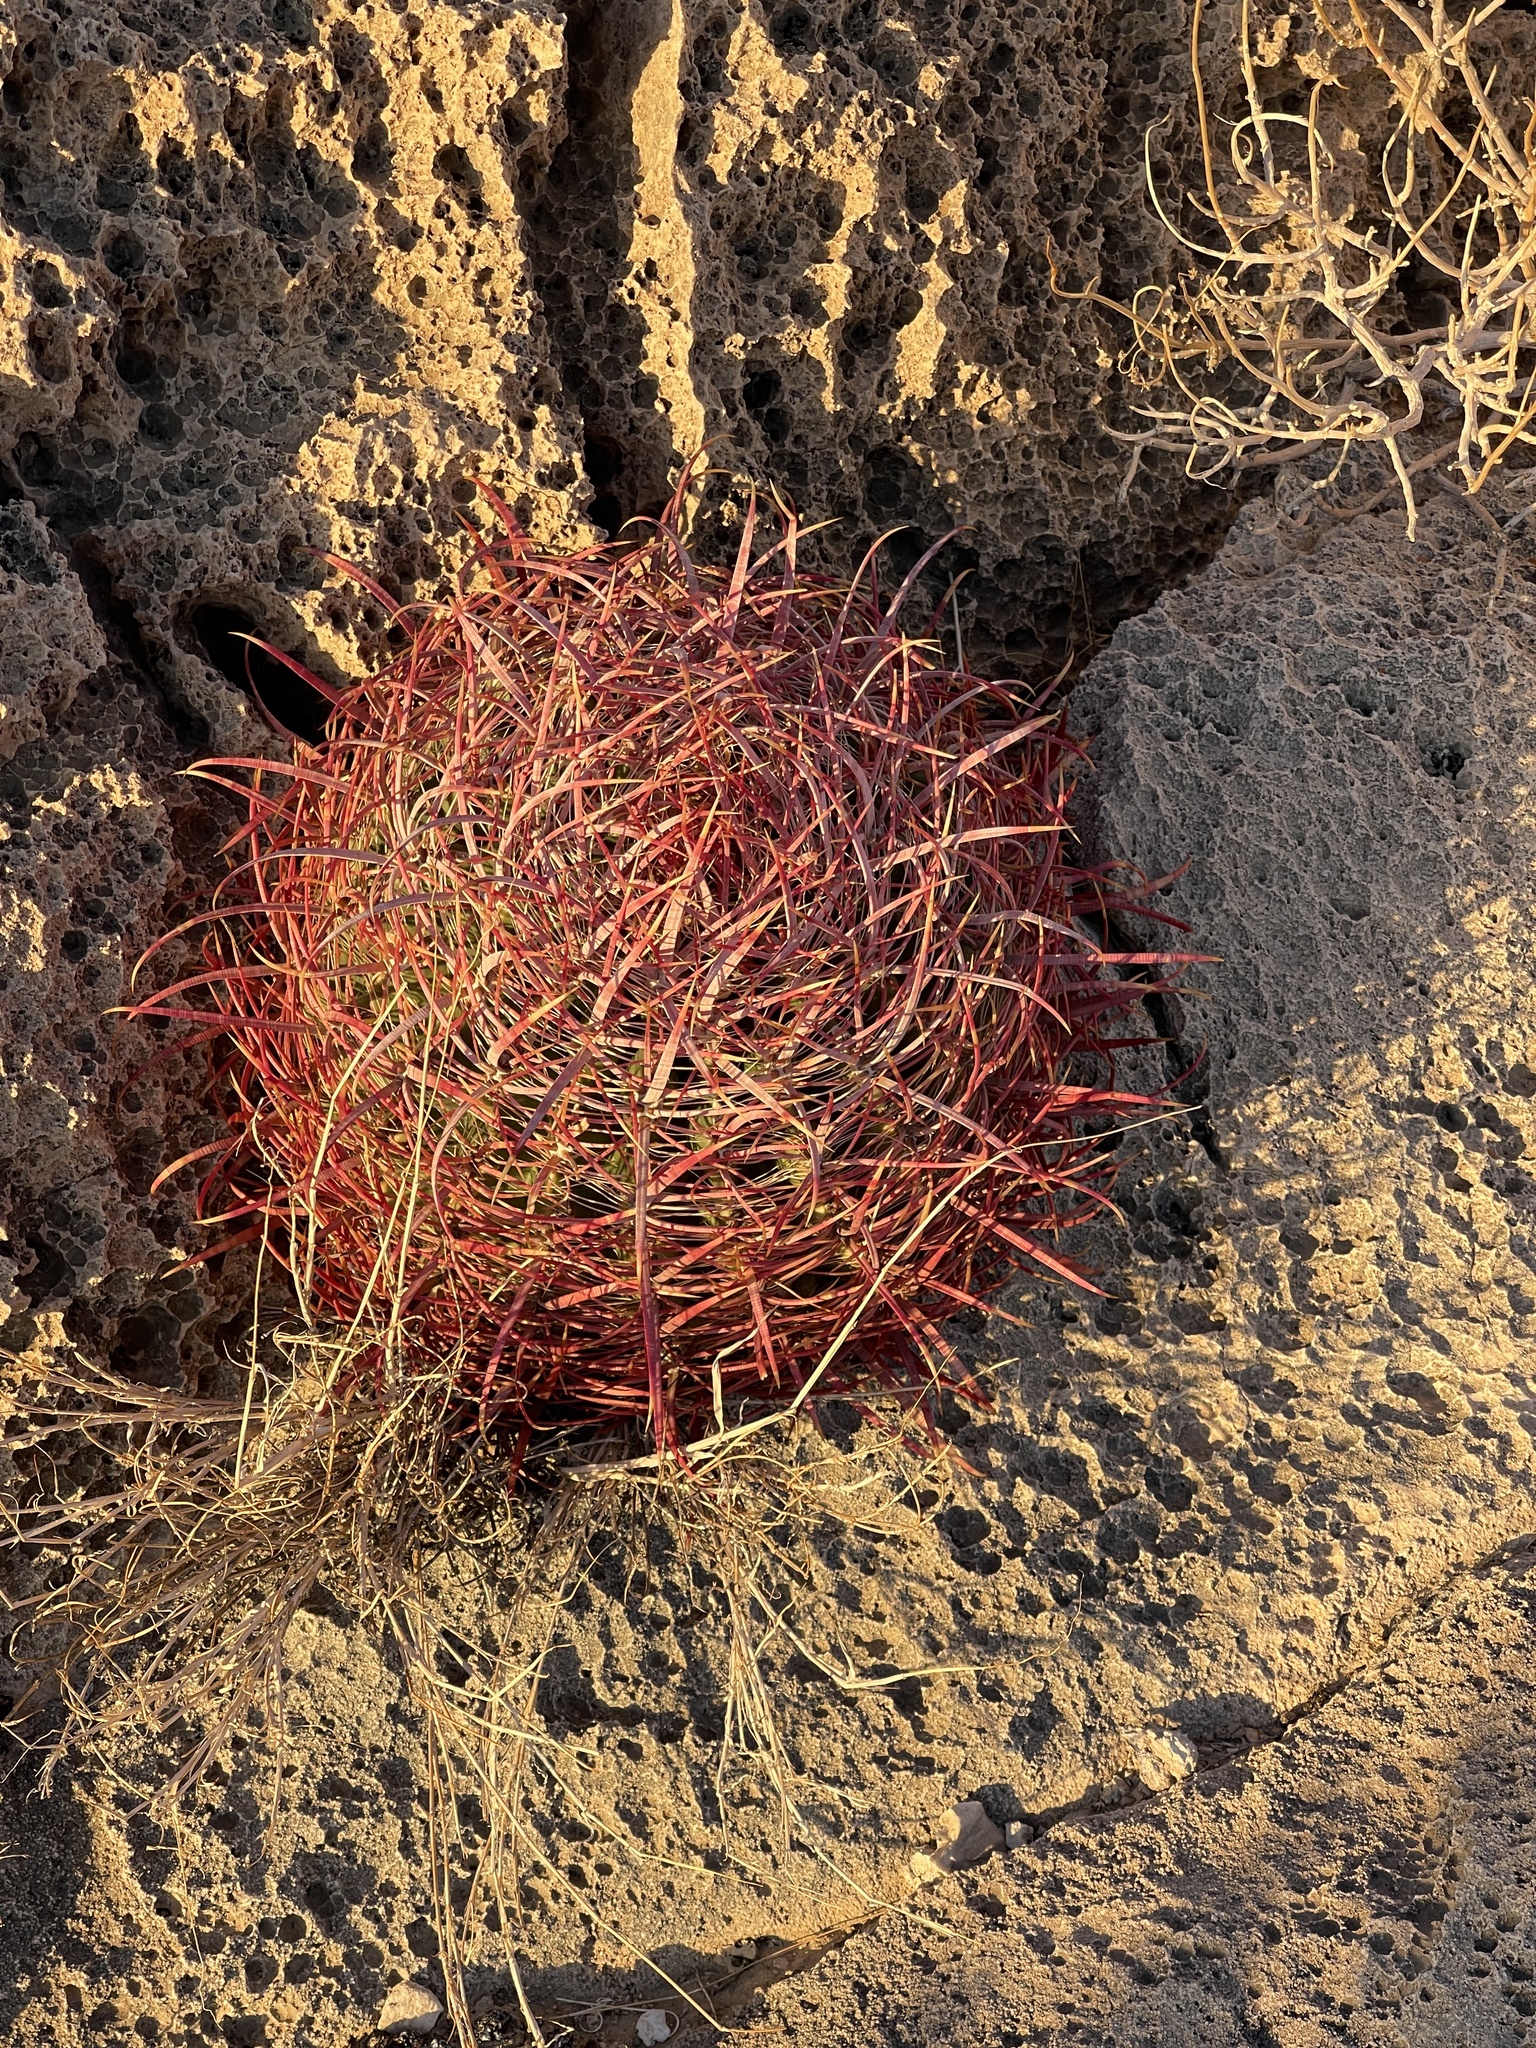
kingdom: Plantae
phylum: Tracheophyta
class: Magnoliopsida
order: Caryophyllales
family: Cactaceae
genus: Ferocactus
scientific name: Ferocactus cylindraceus
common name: California barrel cactus
